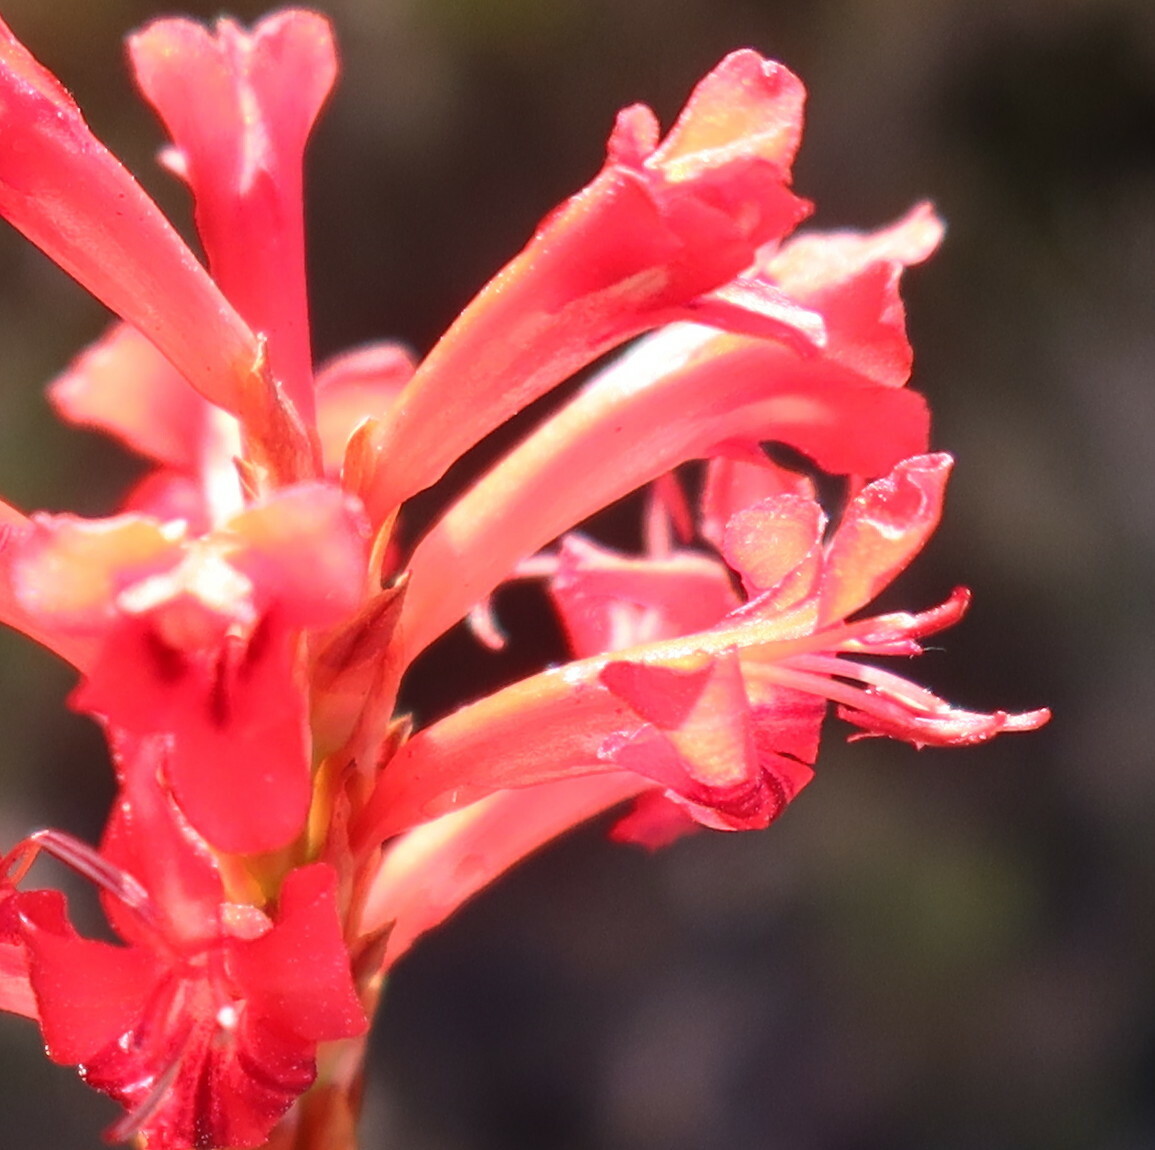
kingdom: Plantae
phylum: Tracheophyta
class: Liliopsida
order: Asparagales
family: Iridaceae
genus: Tritoniopsis
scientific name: Tritoniopsis triticea
